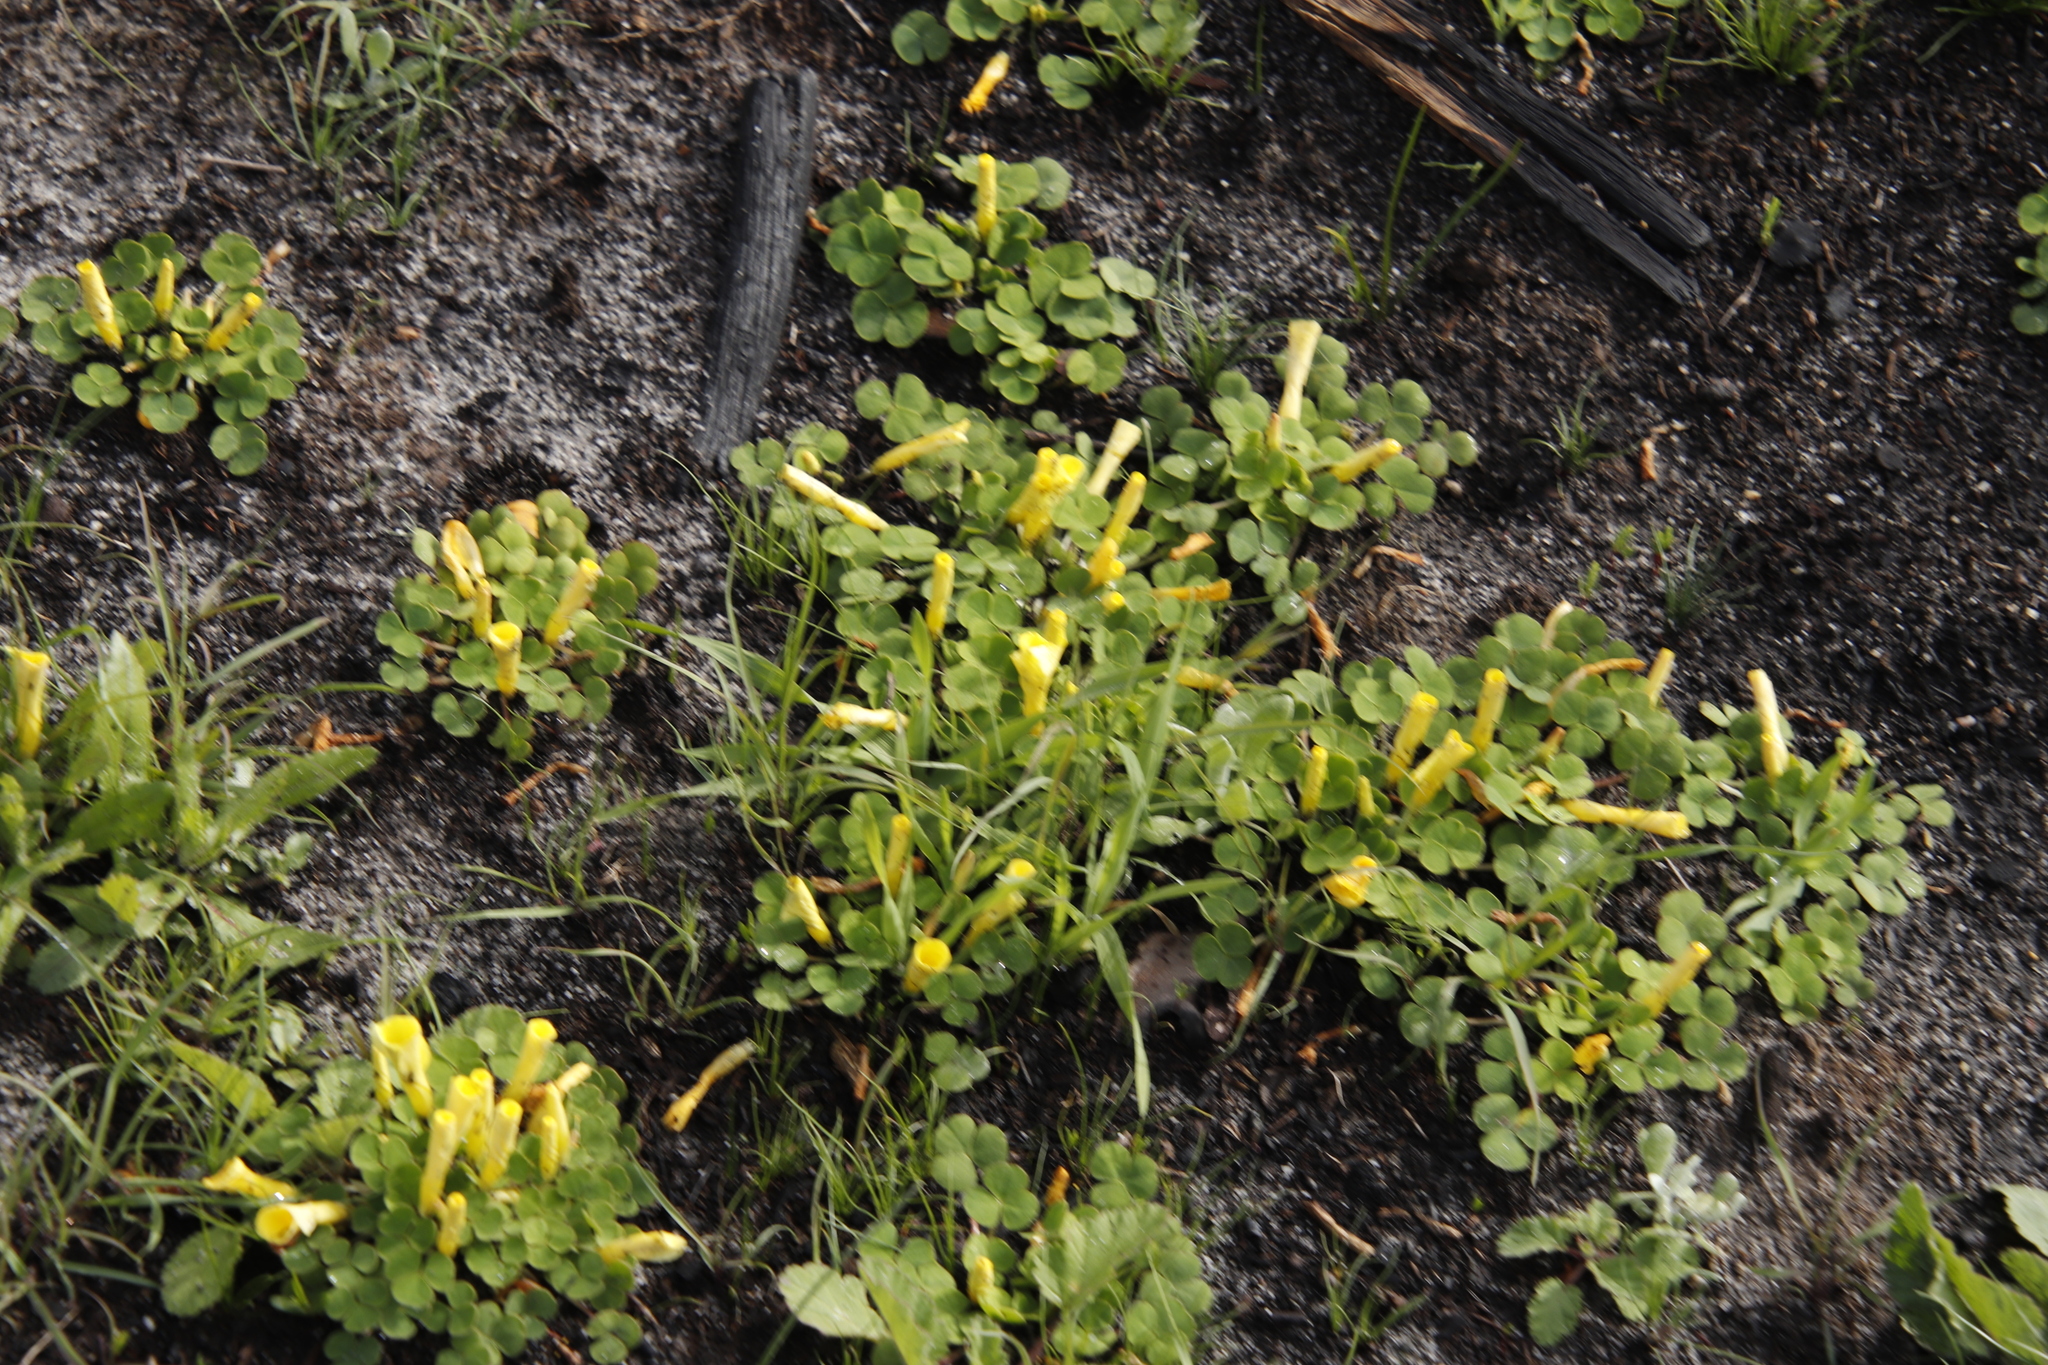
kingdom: Plantae
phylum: Tracheophyta
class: Magnoliopsida
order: Oxalidales
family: Oxalidaceae
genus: Oxalis
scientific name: Oxalis luteola
